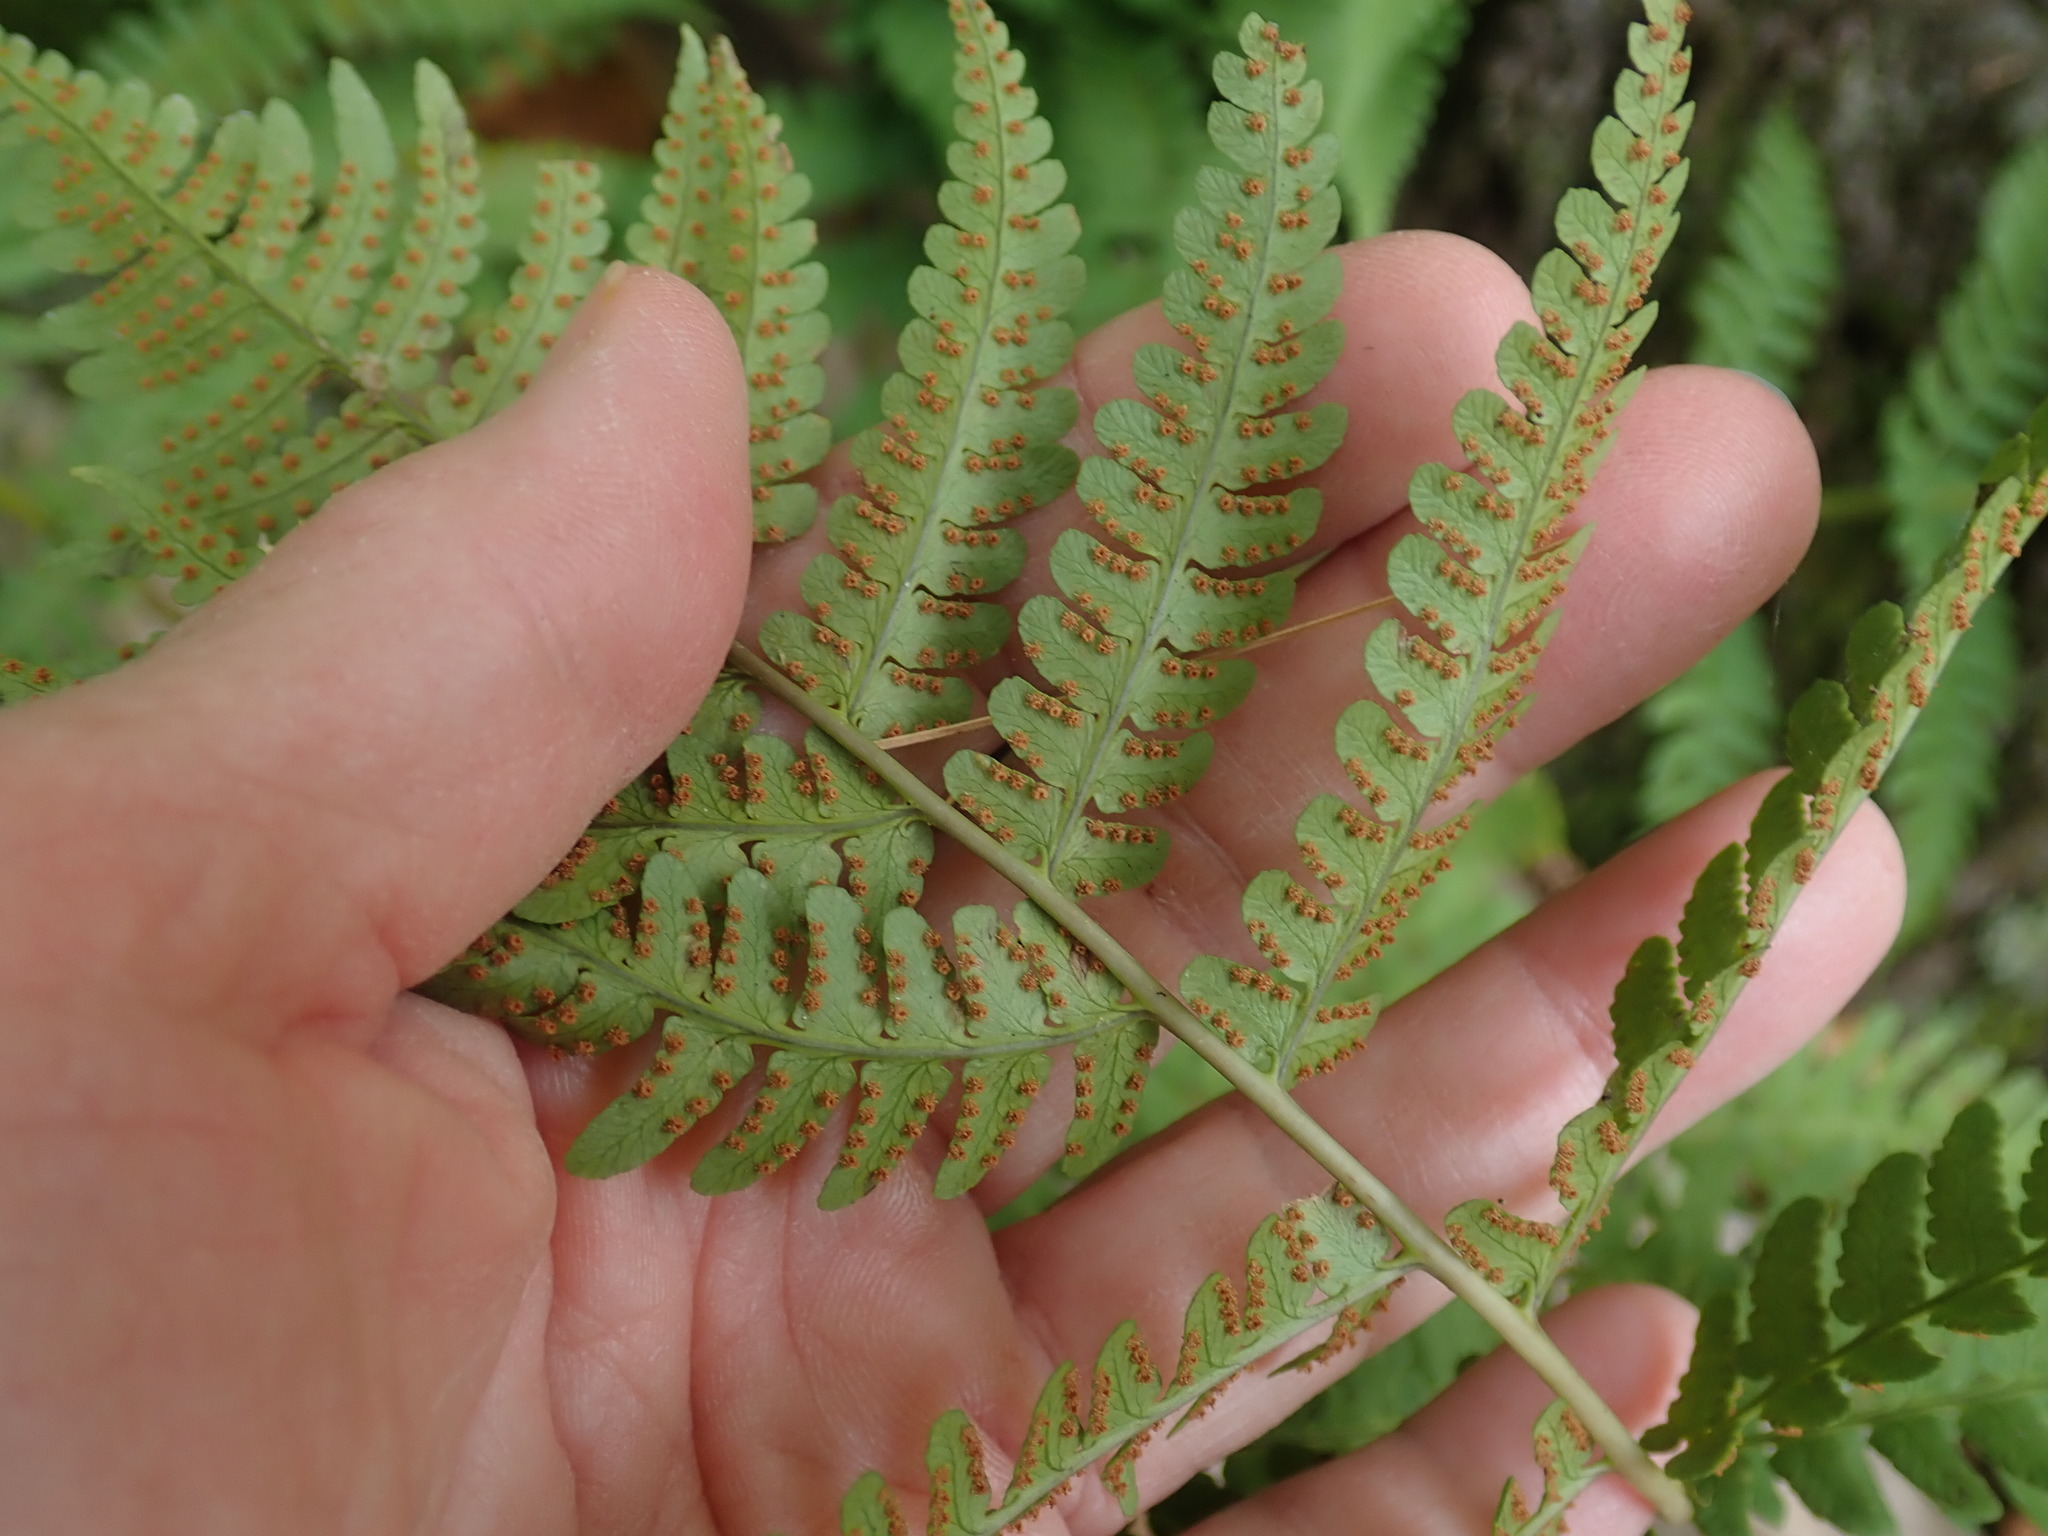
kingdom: Plantae
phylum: Tracheophyta
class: Polypodiopsida
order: Polypodiales
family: Dryopteridaceae
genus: Dryopteris
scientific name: Dryopteris marginalis
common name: Marginal wood fern
